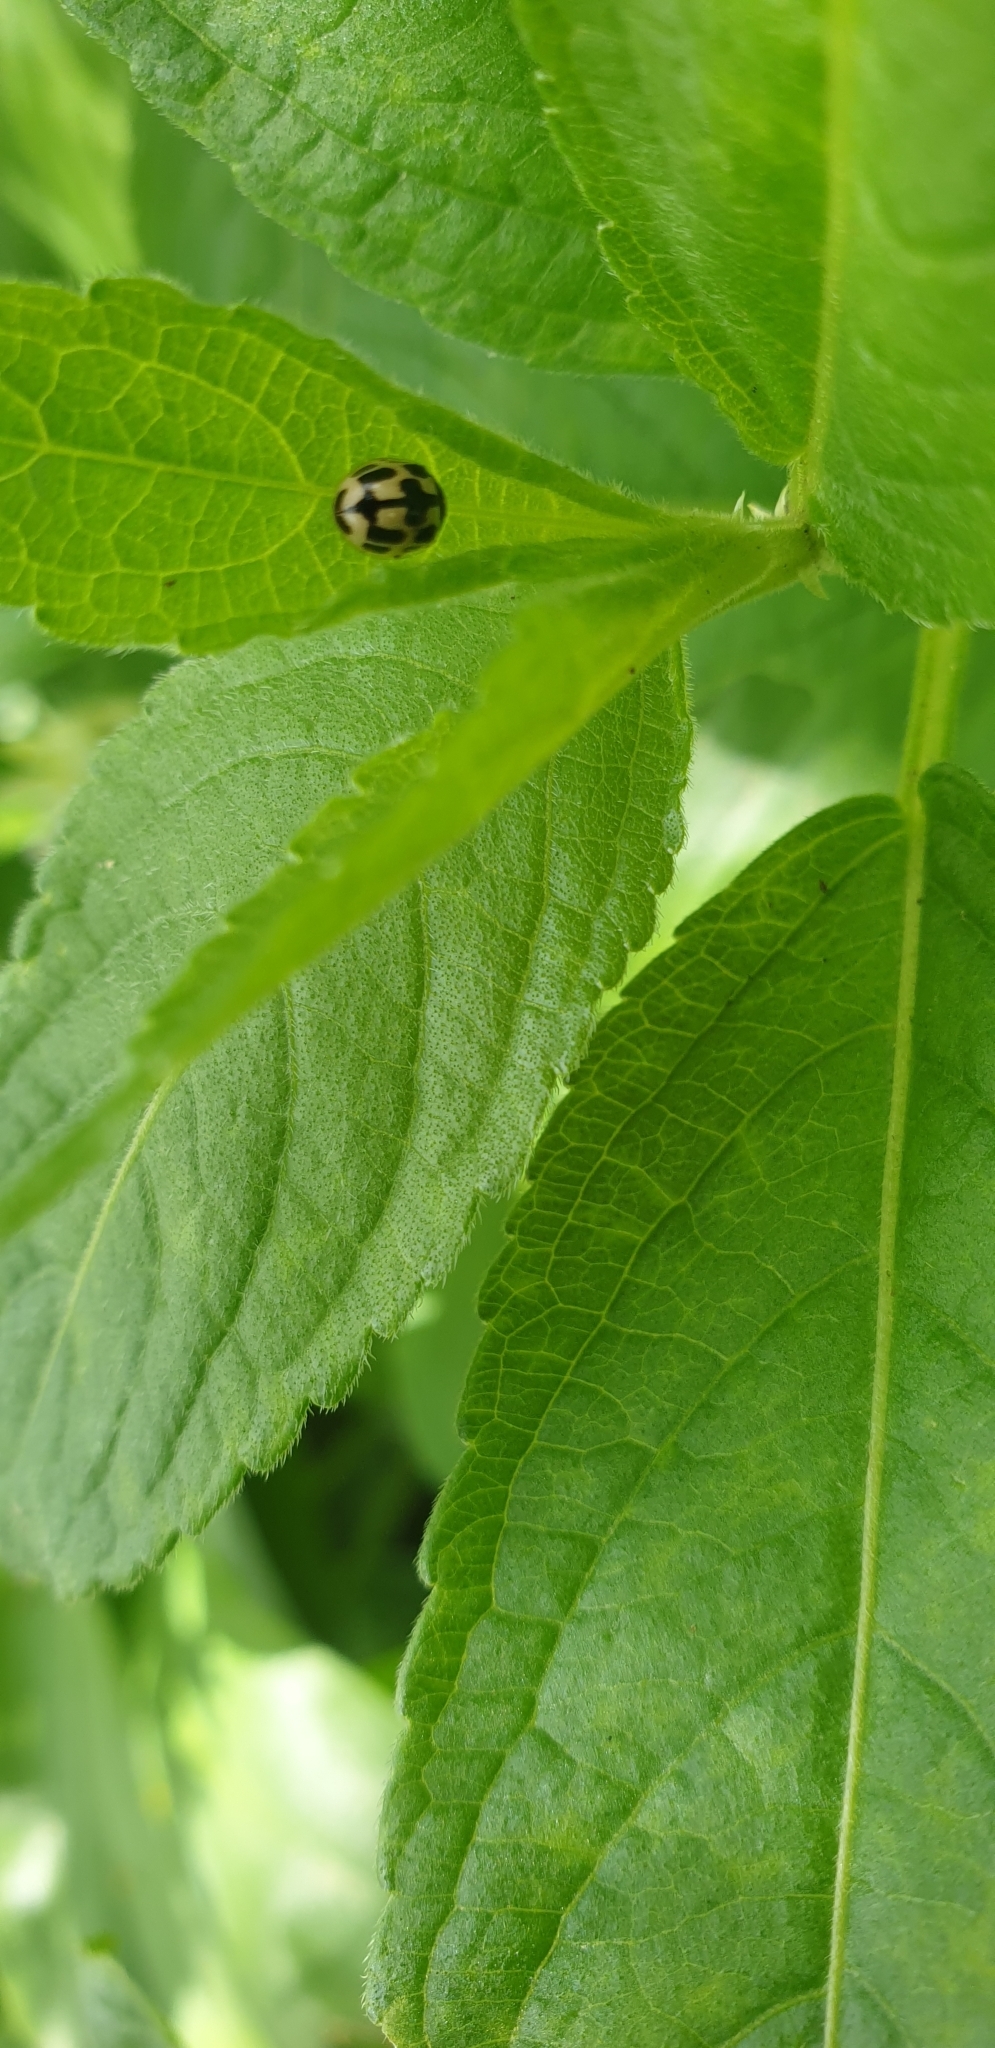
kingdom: Animalia
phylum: Arthropoda
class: Insecta
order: Coleoptera
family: Coccinellidae
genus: Propylaea
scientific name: Propylaea quatuordecimpunctata
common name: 14-spotted ladybird beetle
